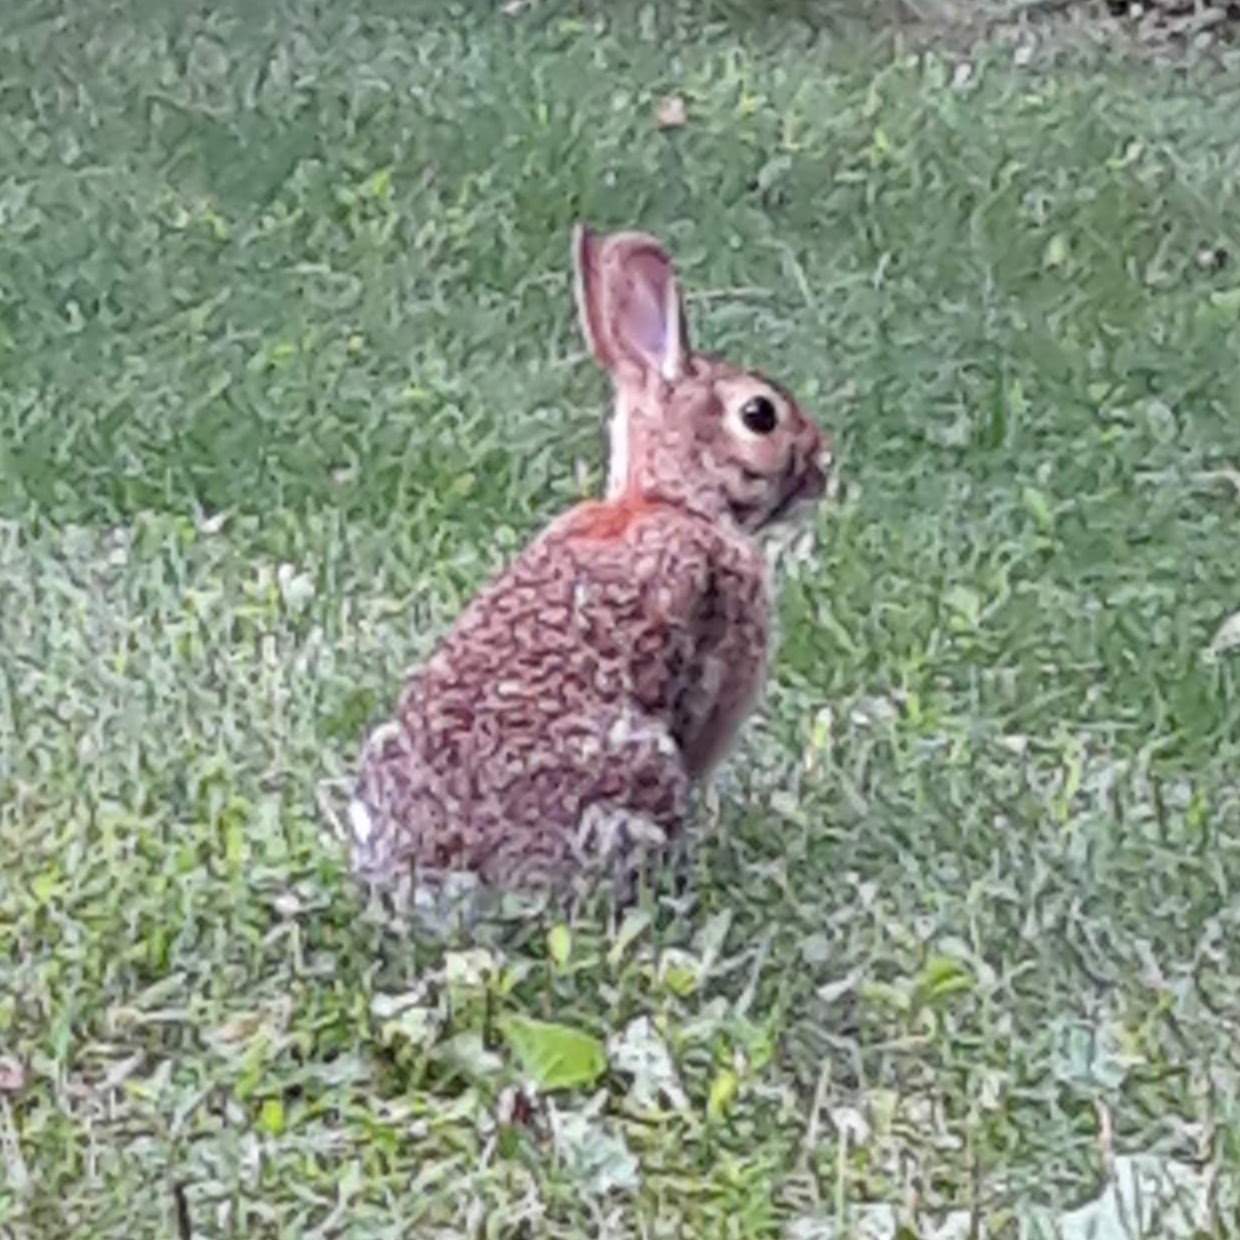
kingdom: Animalia
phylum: Chordata
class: Mammalia
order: Lagomorpha
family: Leporidae
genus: Sylvilagus
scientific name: Sylvilagus floridanus
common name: Eastern cottontail
